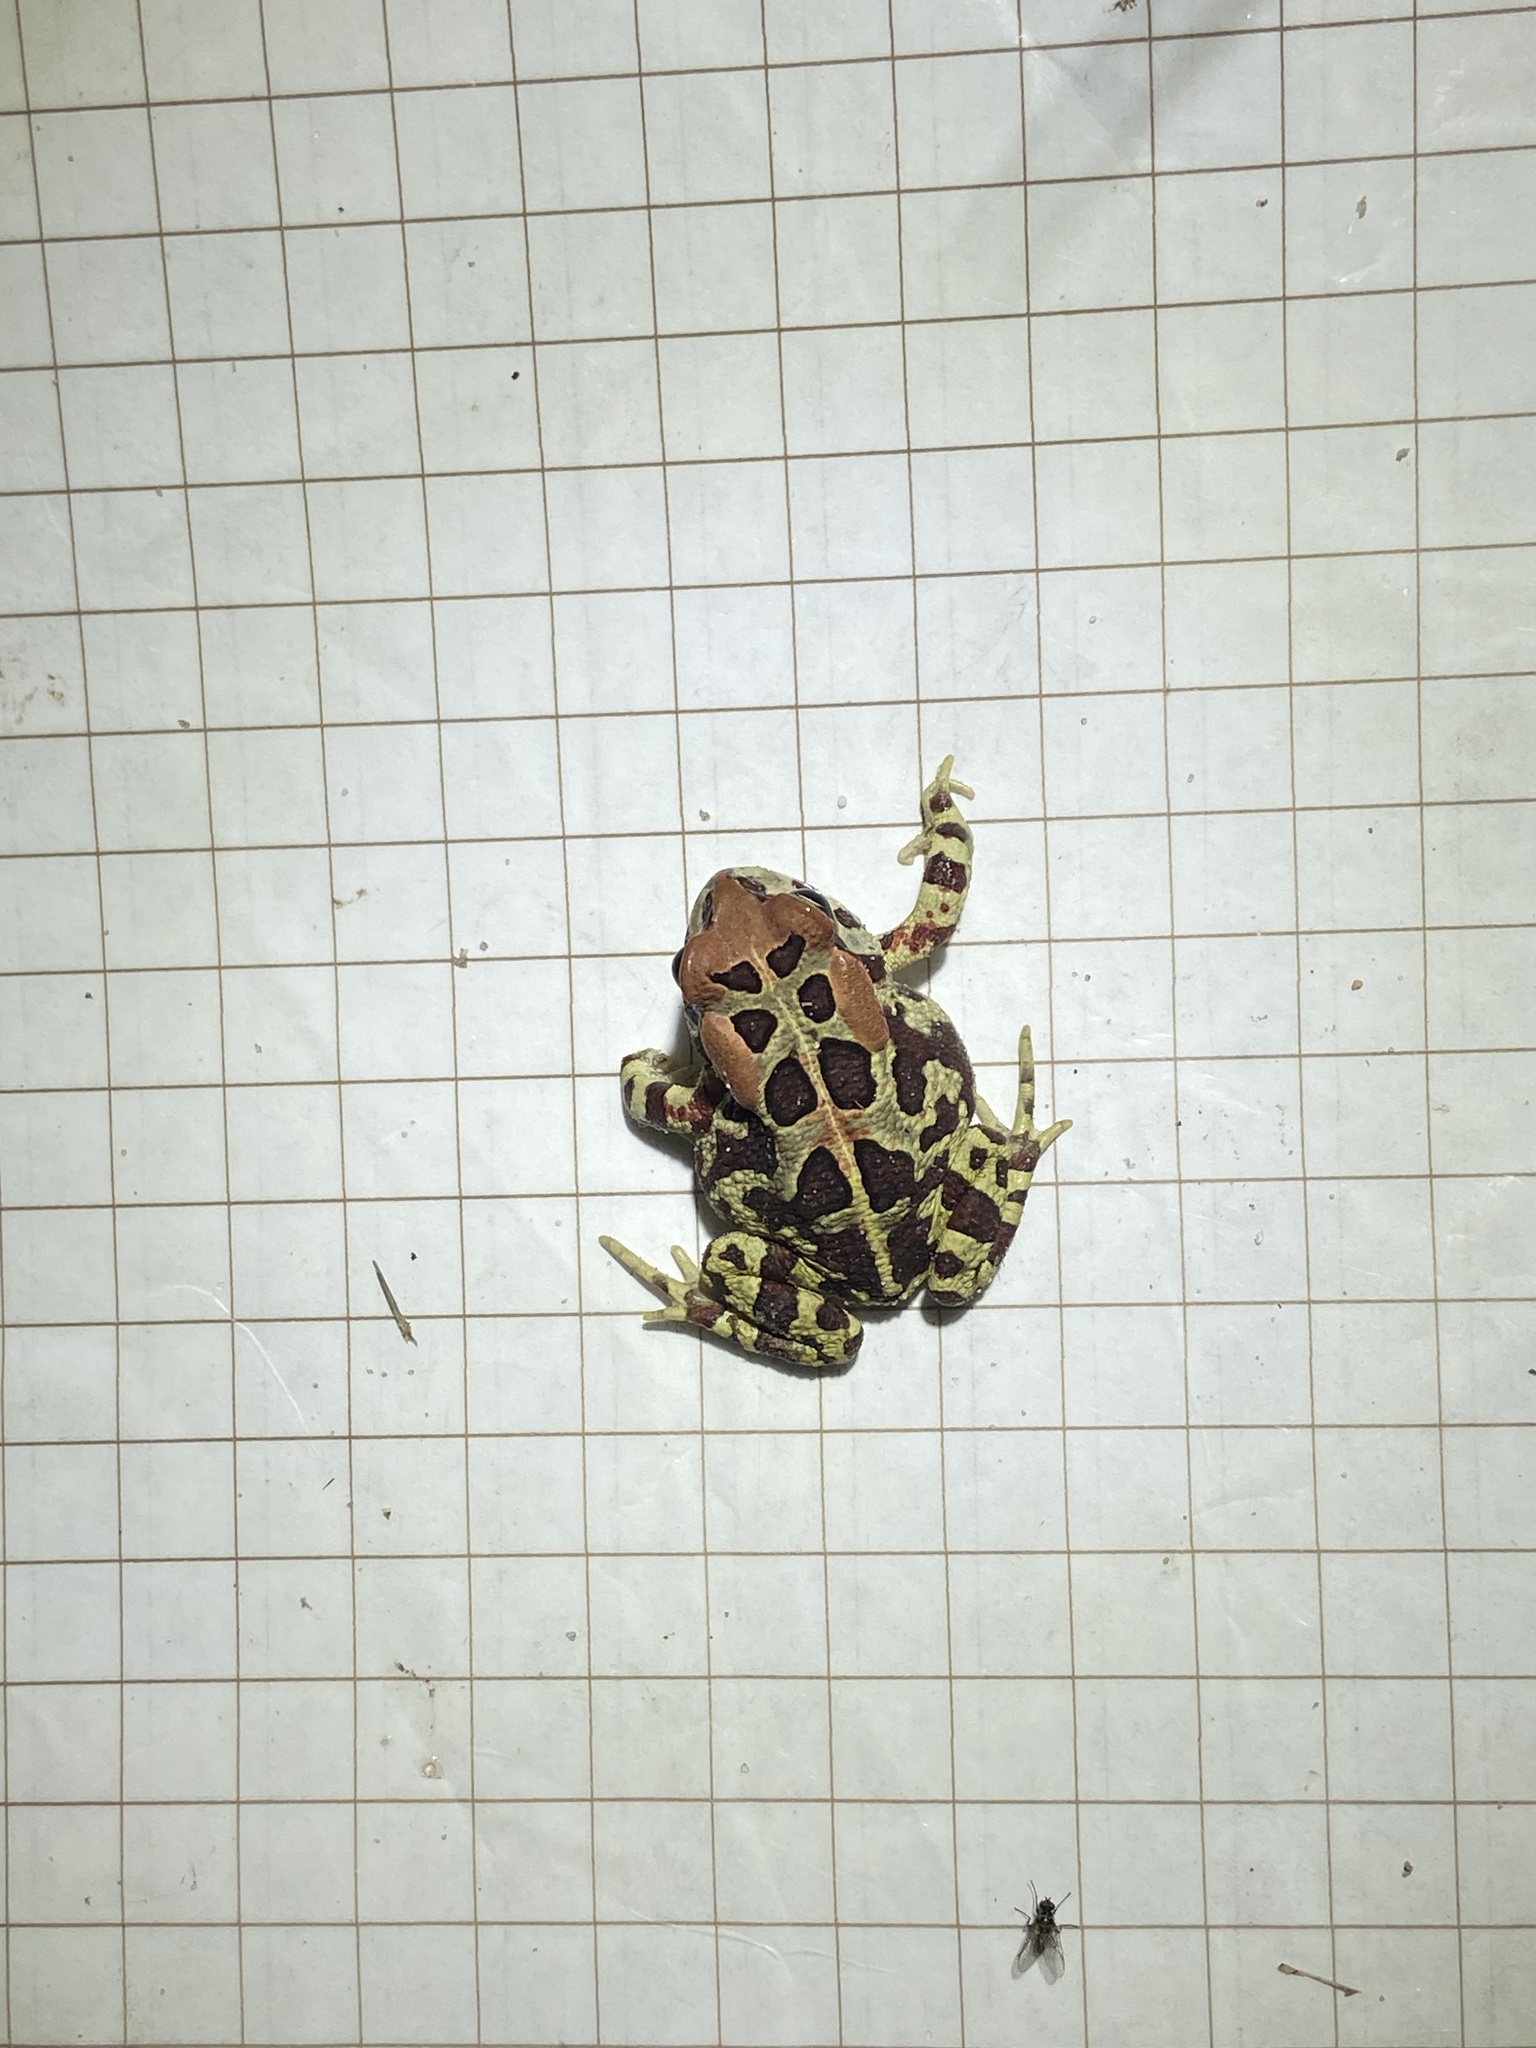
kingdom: Animalia
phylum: Chordata
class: Amphibia
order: Anura
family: Bufonidae
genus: Sclerophrys
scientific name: Sclerophrys pantherina
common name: Panther toad
